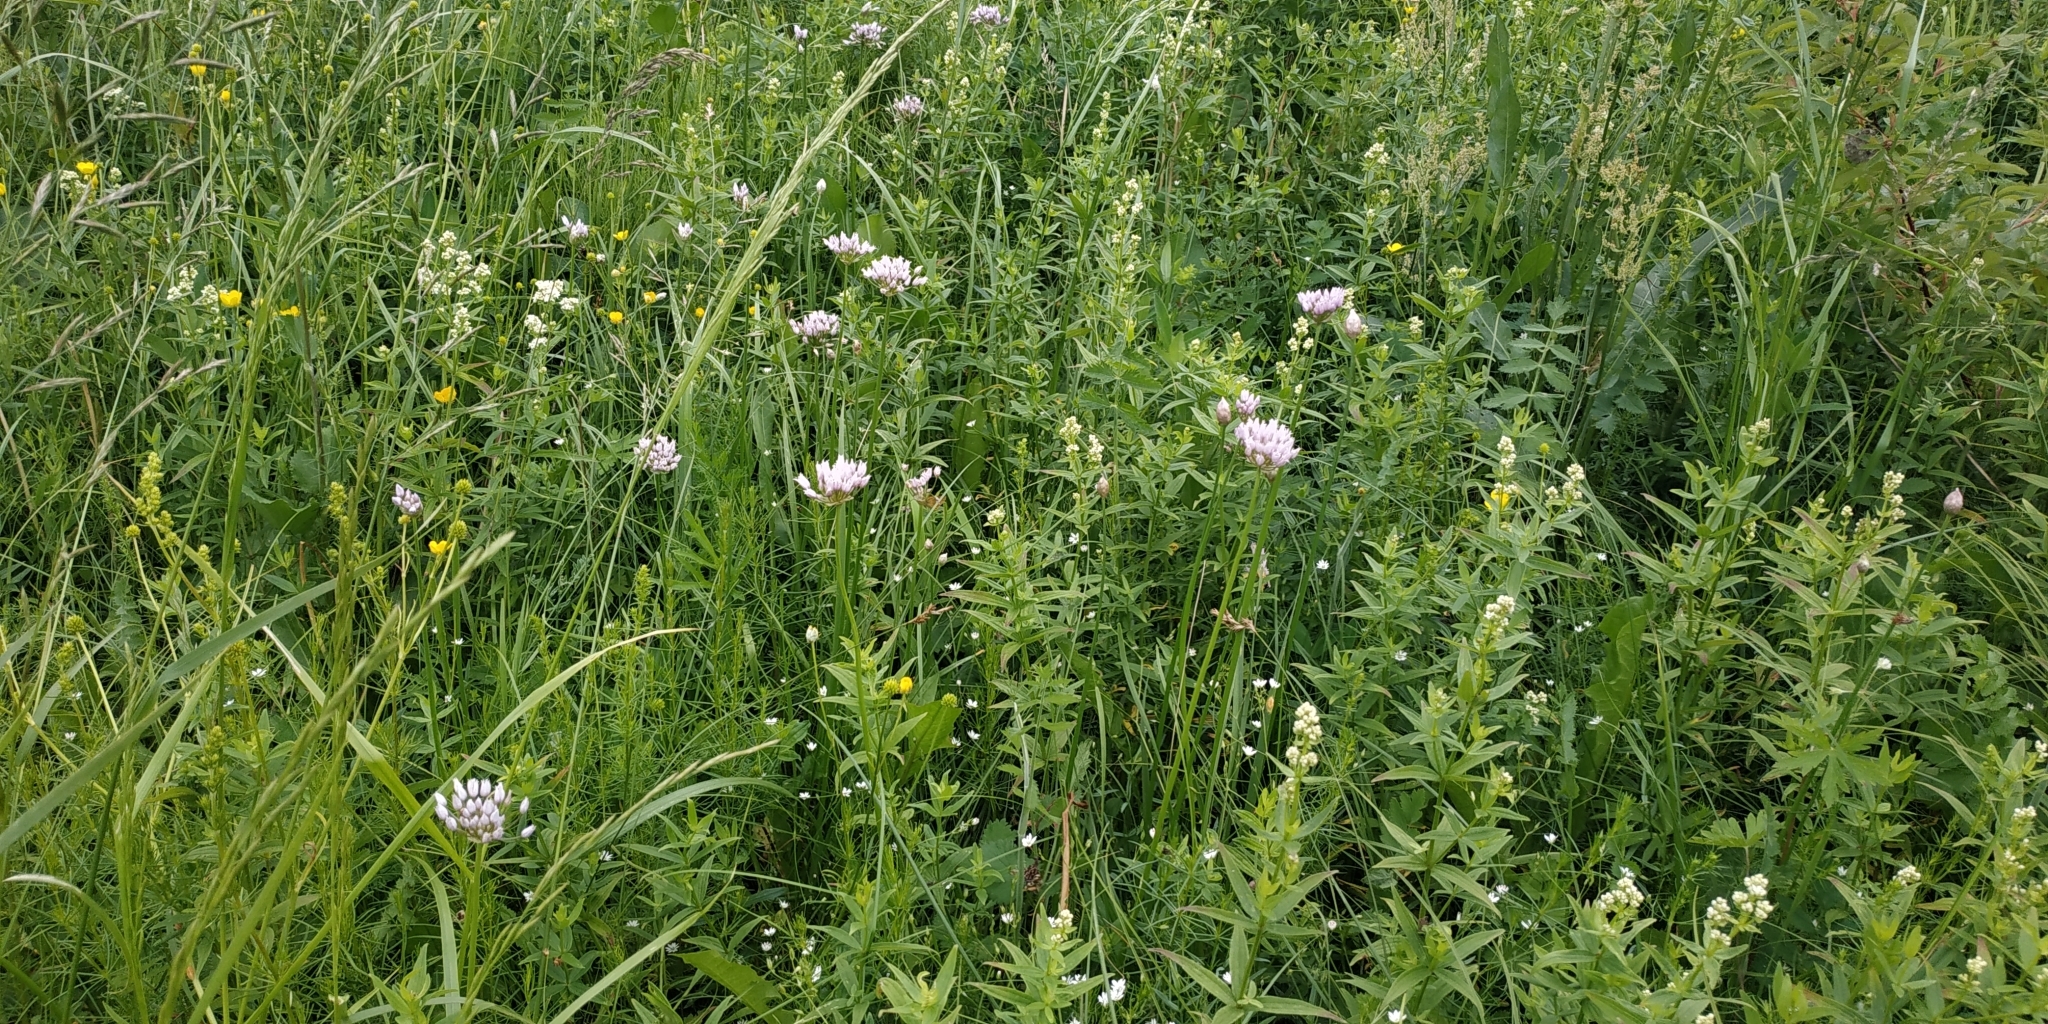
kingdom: Plantae
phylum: Tracheophyta
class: Liliopsida
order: Asparagales
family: Amaryllidaceae
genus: Allium
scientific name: Allium angulosum
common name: Mouse garlic
